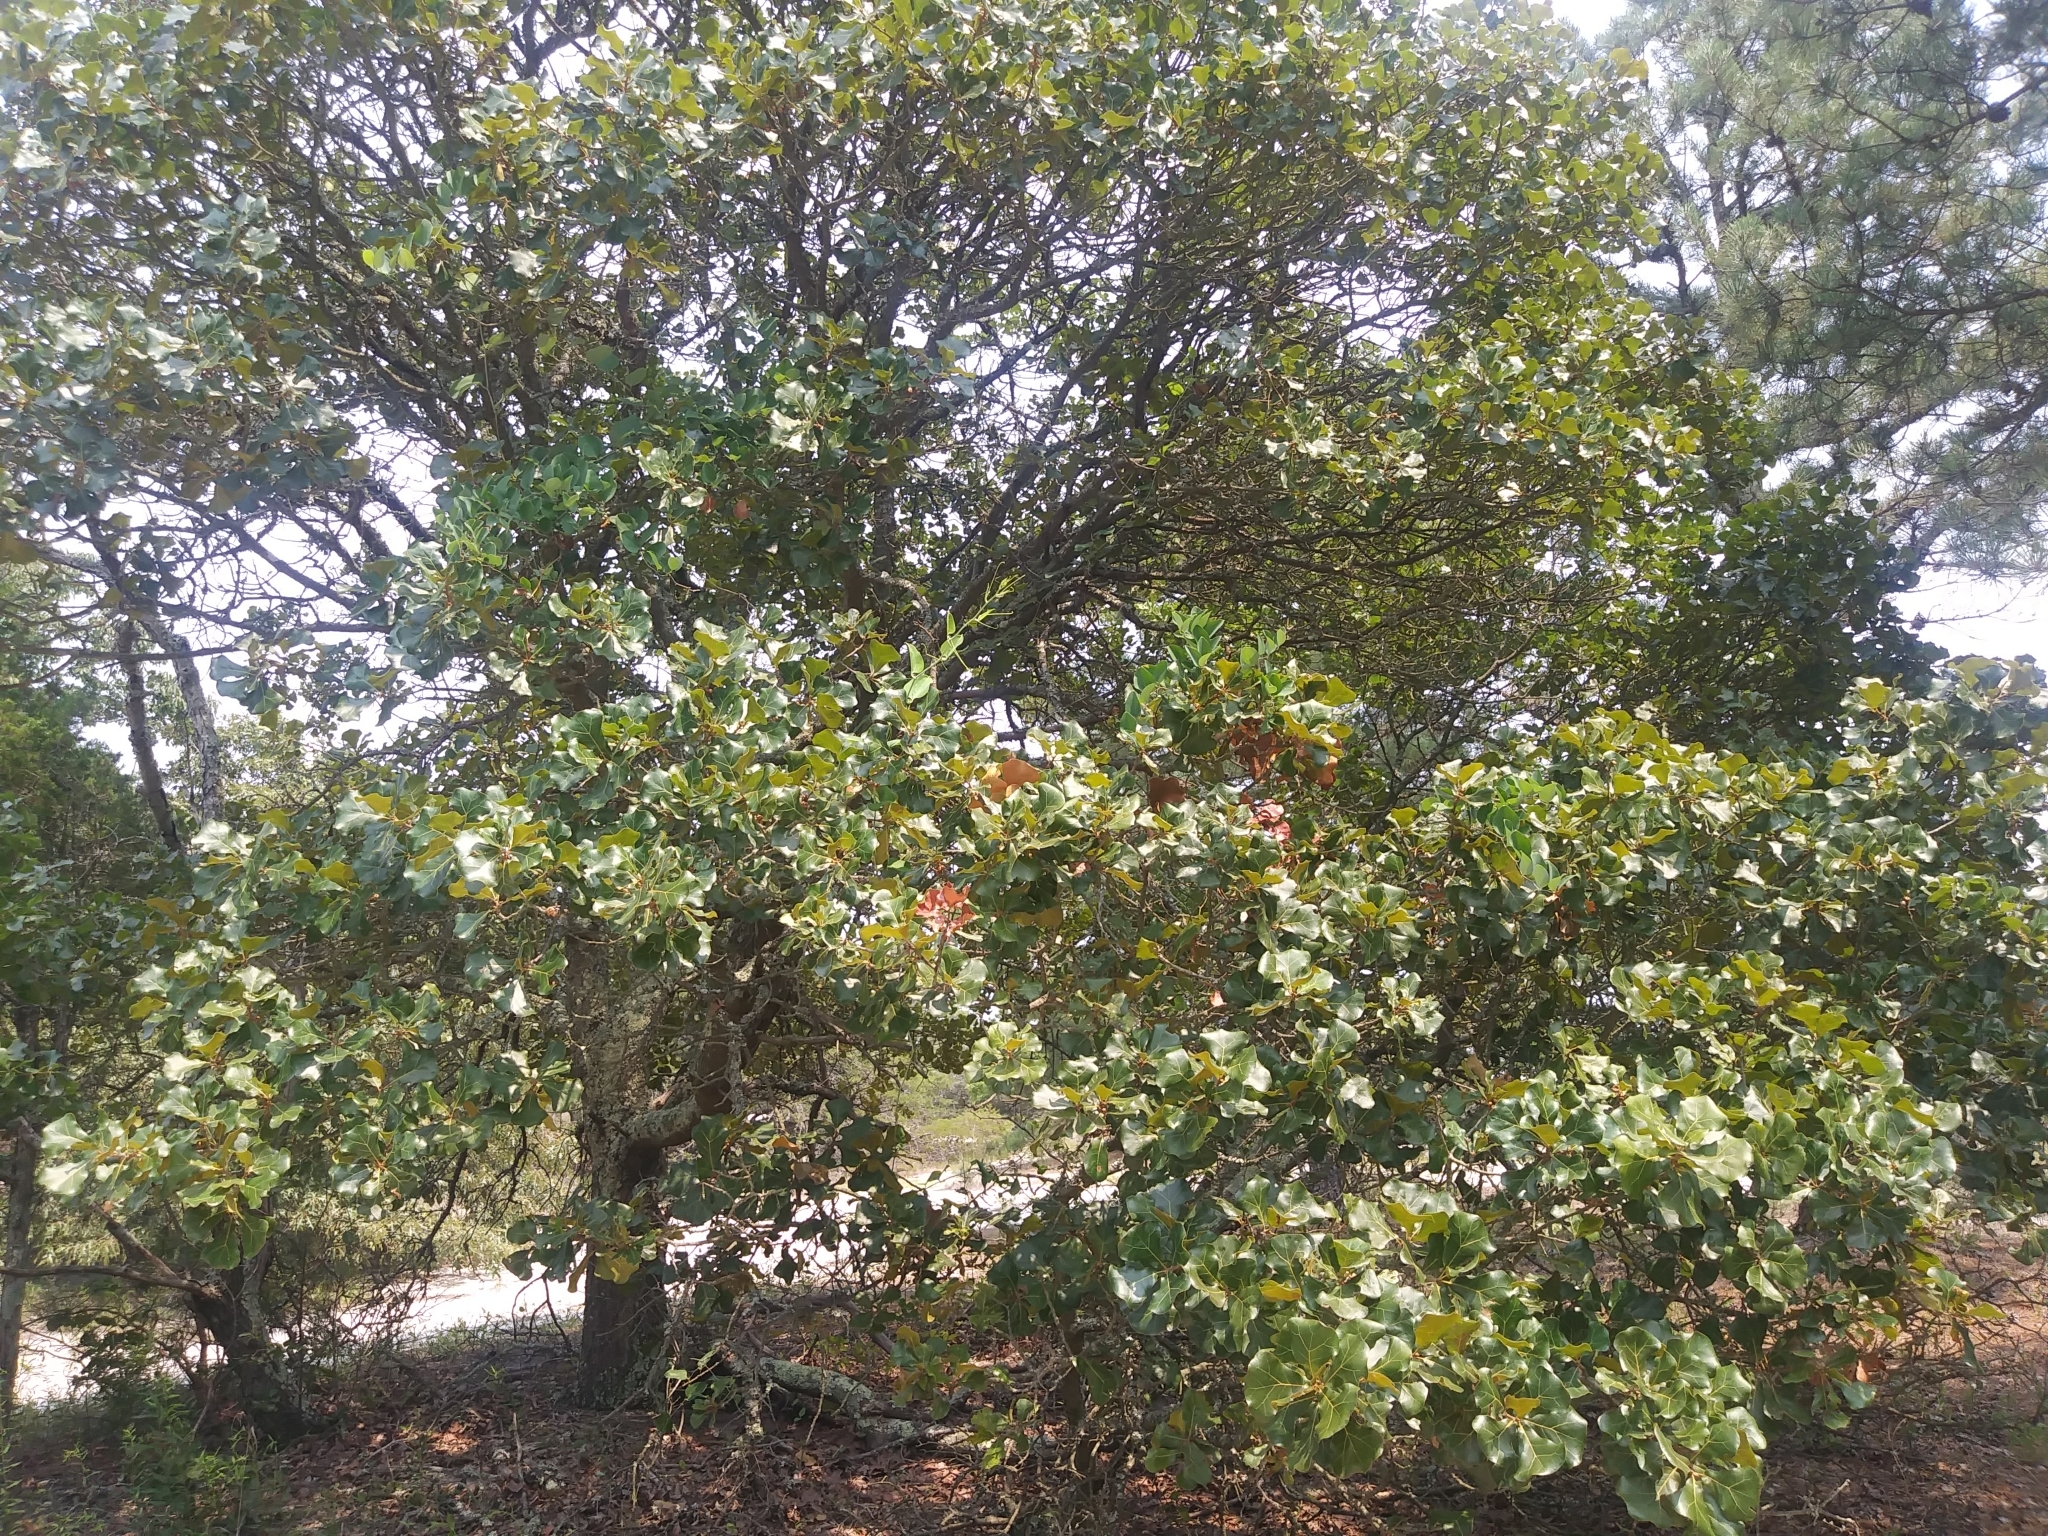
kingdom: Plantae
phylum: Tracheophyta
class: Magnoliopsida
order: Fagales
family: Fagaceae
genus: Quercus
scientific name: Quercus marilandica
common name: Blackjack oak
